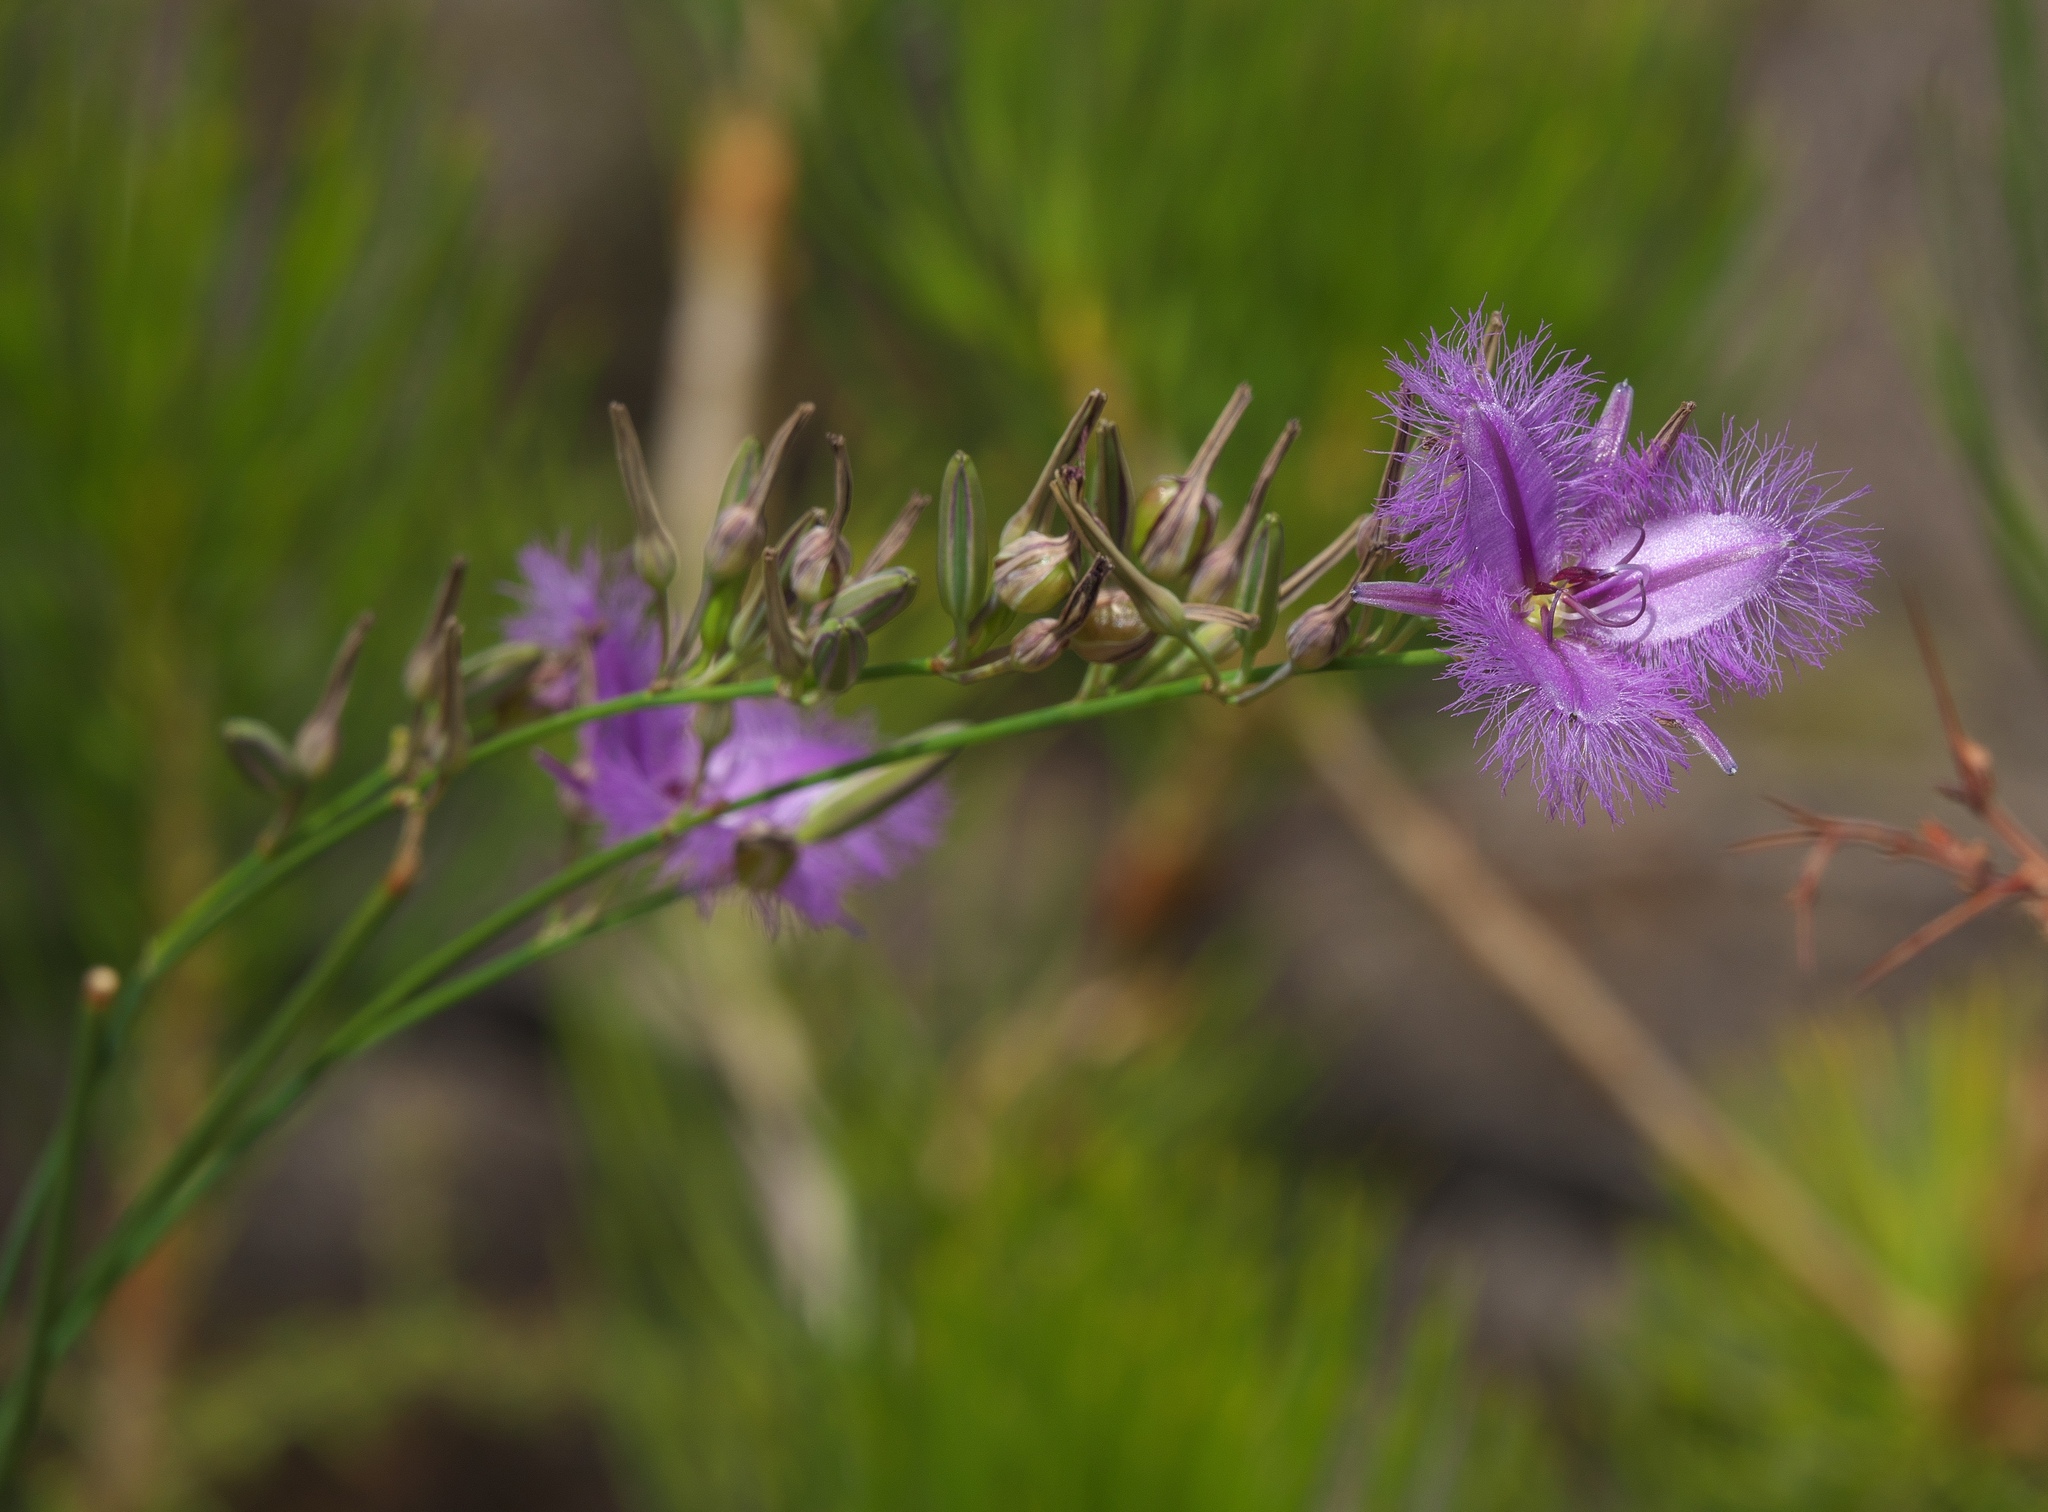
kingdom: Plantae
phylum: Tracheophyta
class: Liliopsida
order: Asparagales
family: Asparagaceae
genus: Thysanotus
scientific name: Thysanotus sparteus
